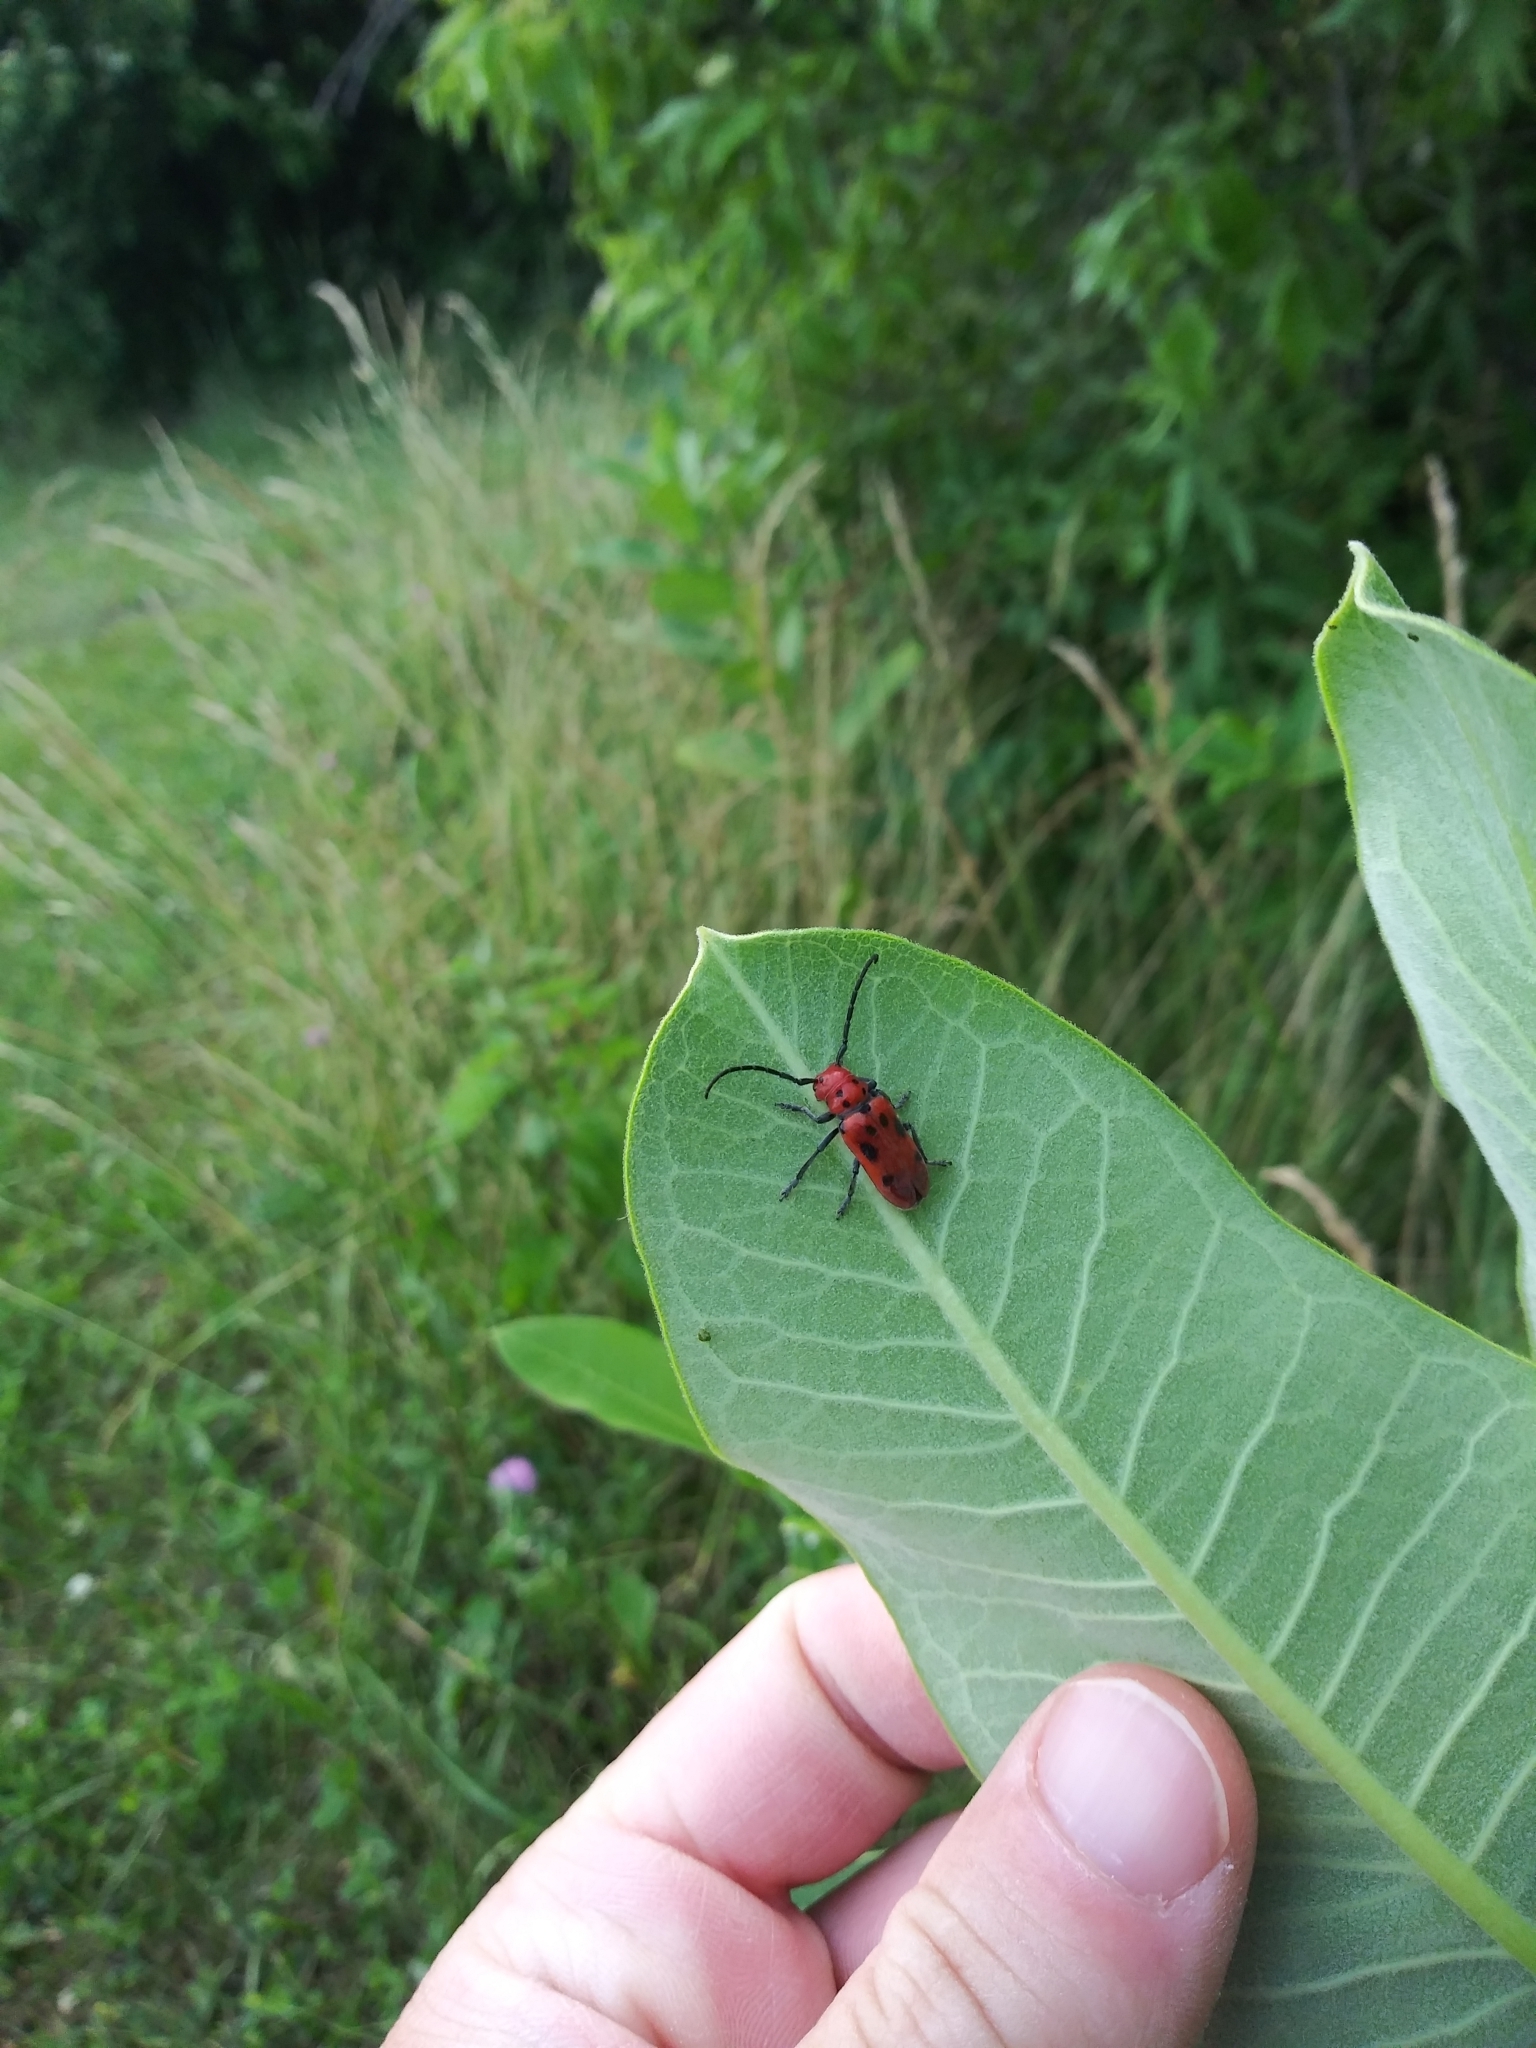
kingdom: Animalia
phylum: Arthropoda
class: Insecta
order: Coleoptera
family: Cerambycidae
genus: Tetraopes
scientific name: Tetraopes tetrophthalmus
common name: Red milkweed beetle
